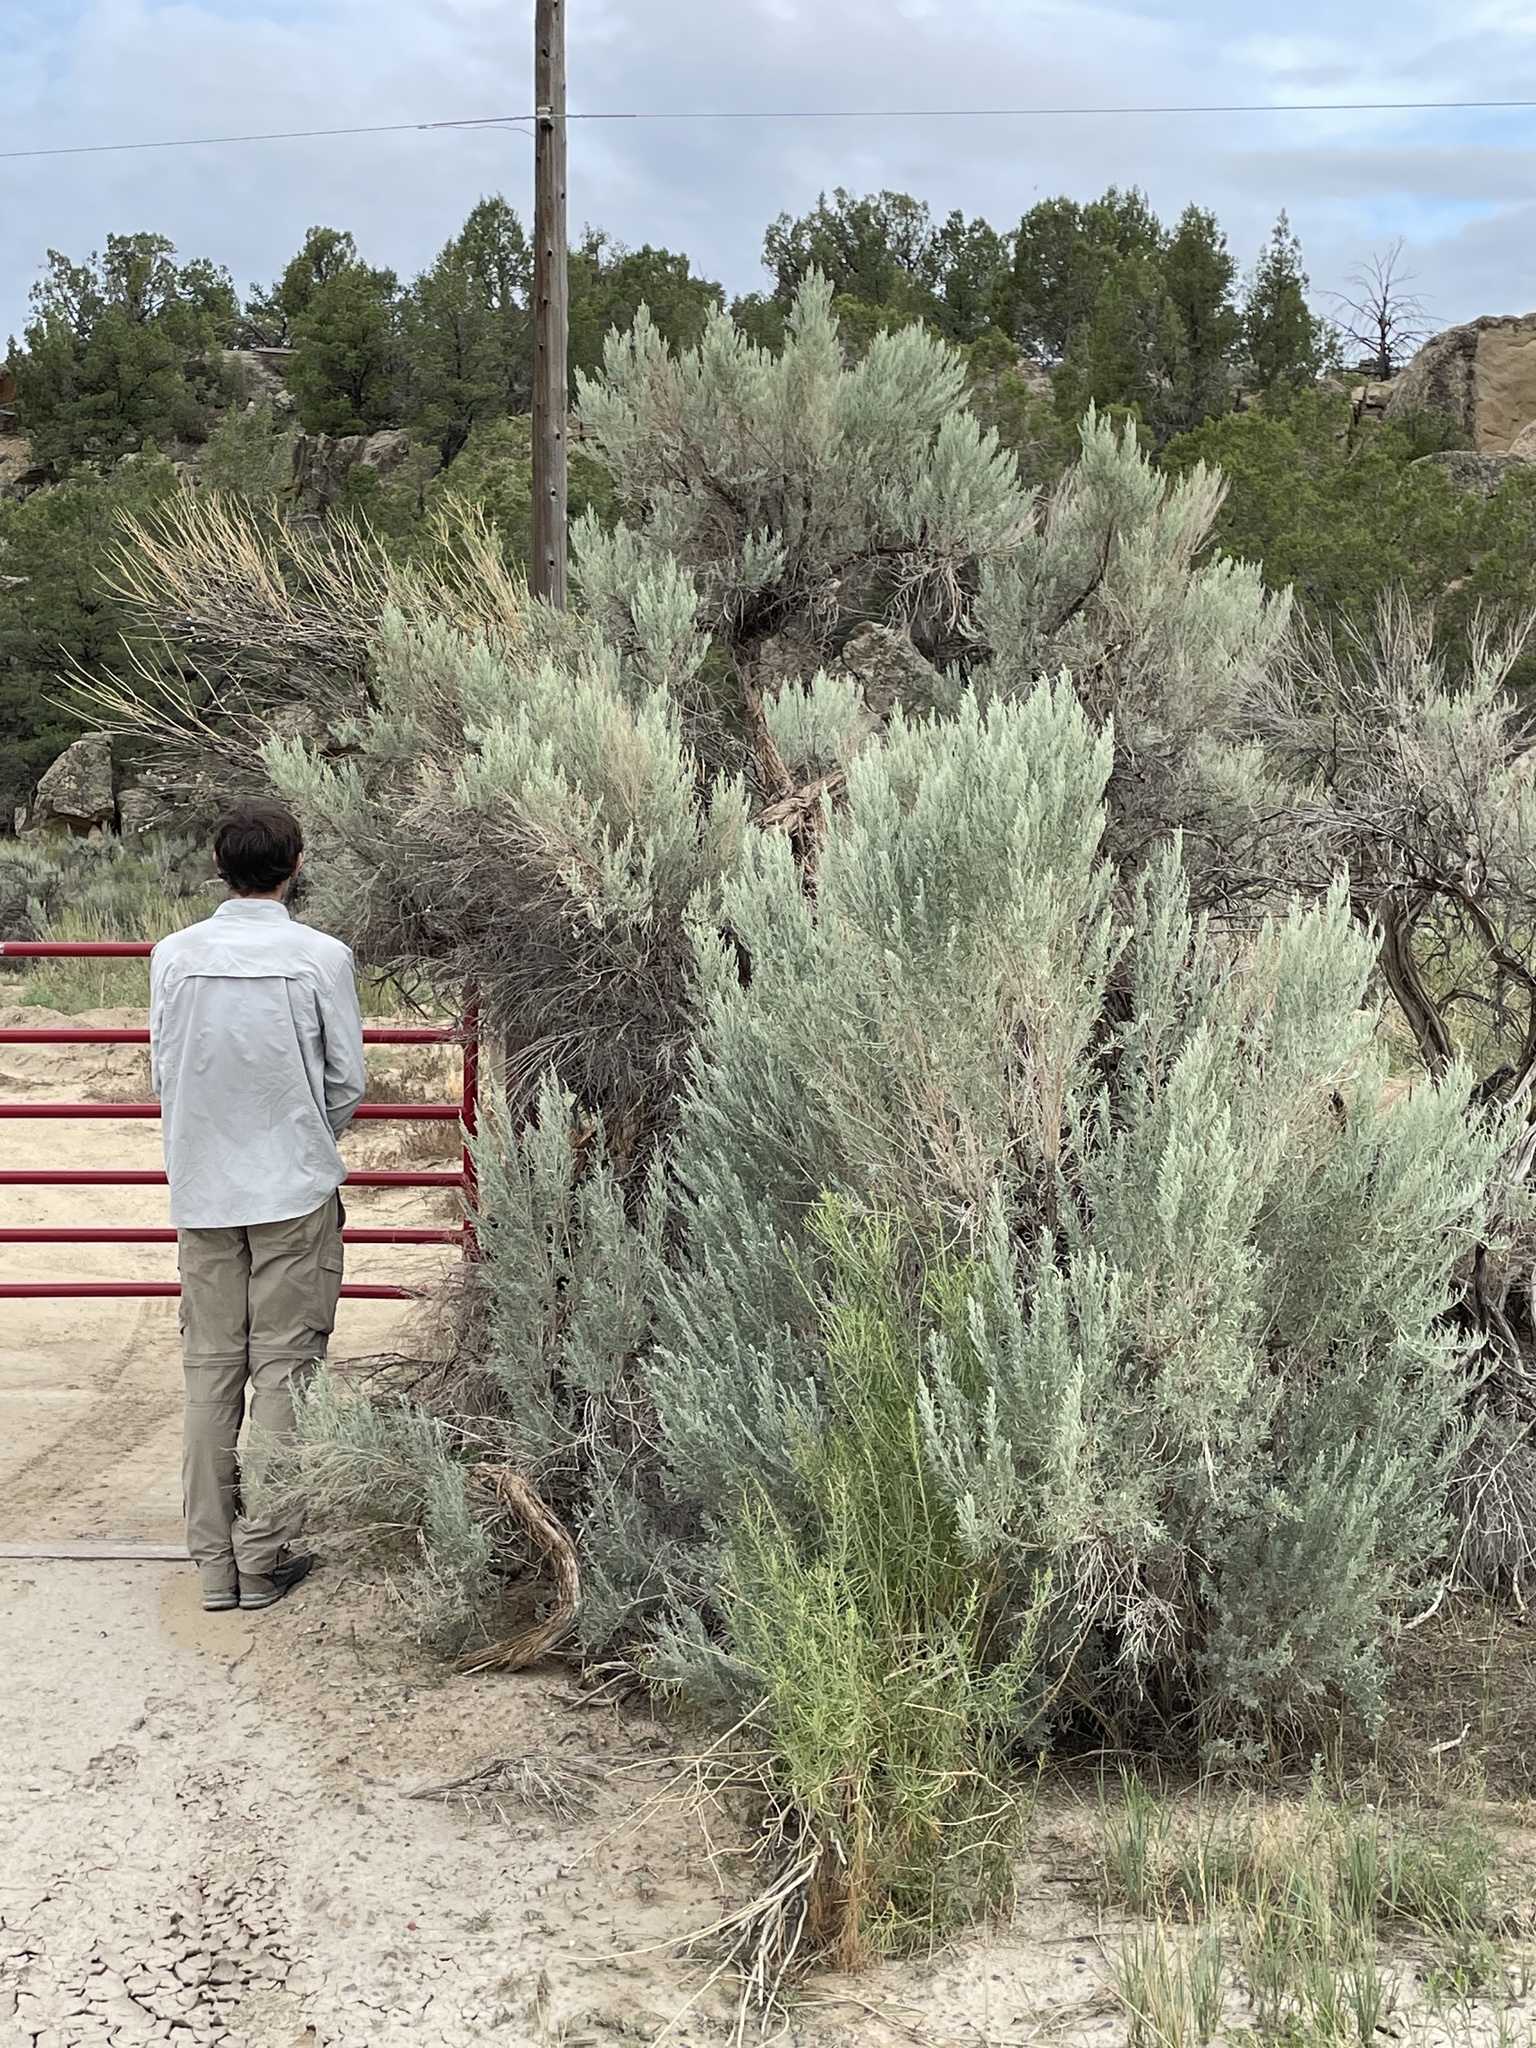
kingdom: Plantae
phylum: Tracheophyta
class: Magnoliopsida
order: Asterales
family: Asteraceae
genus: Artemisia
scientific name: Artemisia tridentata
